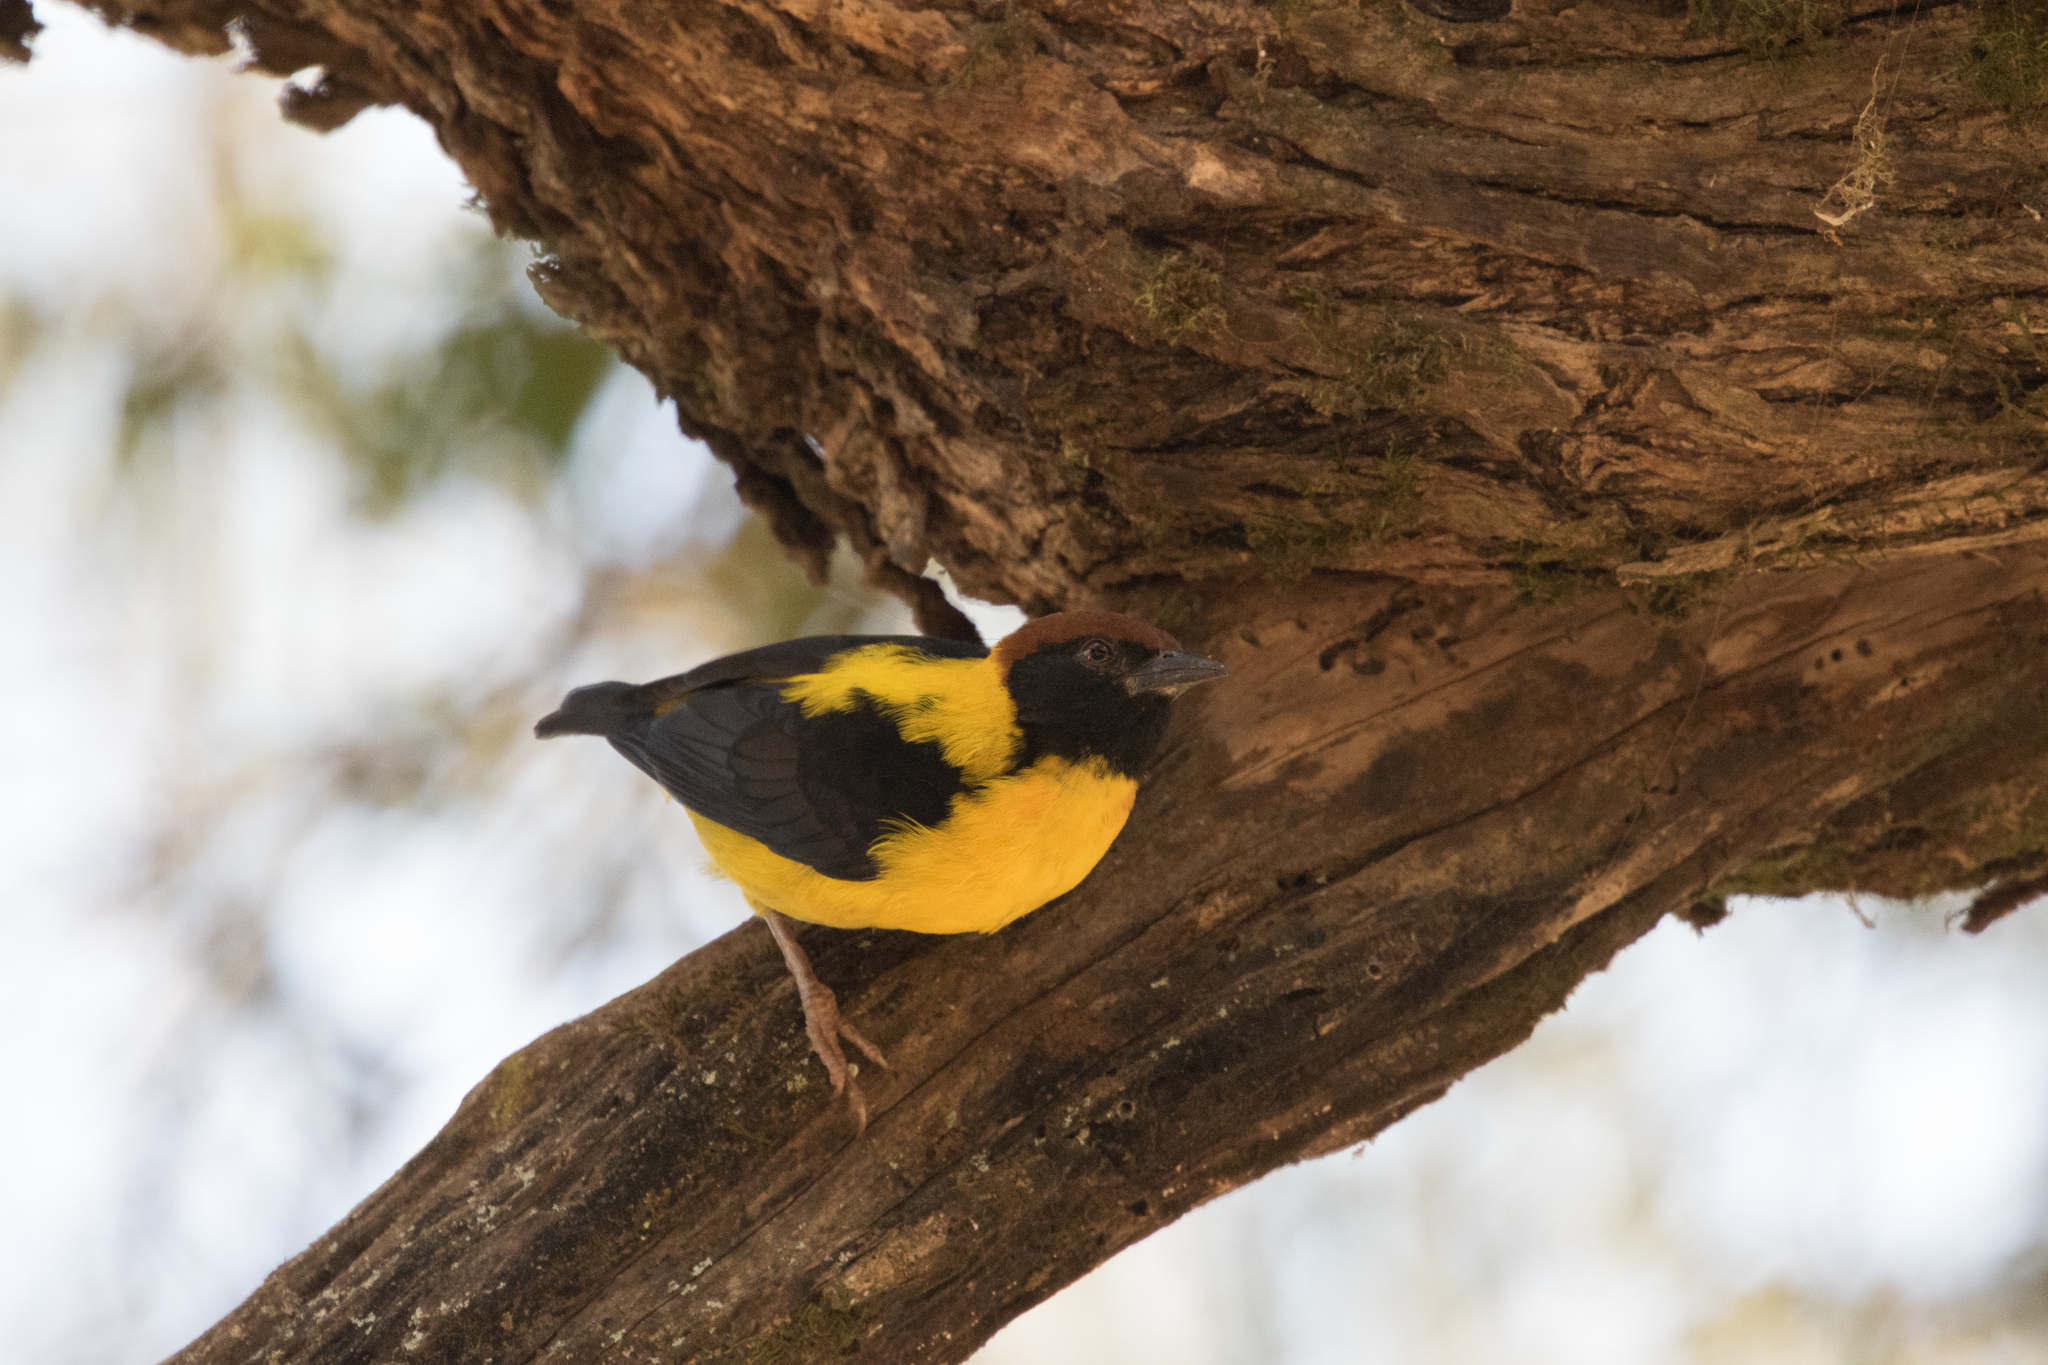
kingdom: Animalia
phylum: Chordata
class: Aves
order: Passeriformes
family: Ploceidae
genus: Ploceus
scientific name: Ploceus insignis
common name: Brown-capped weaver
